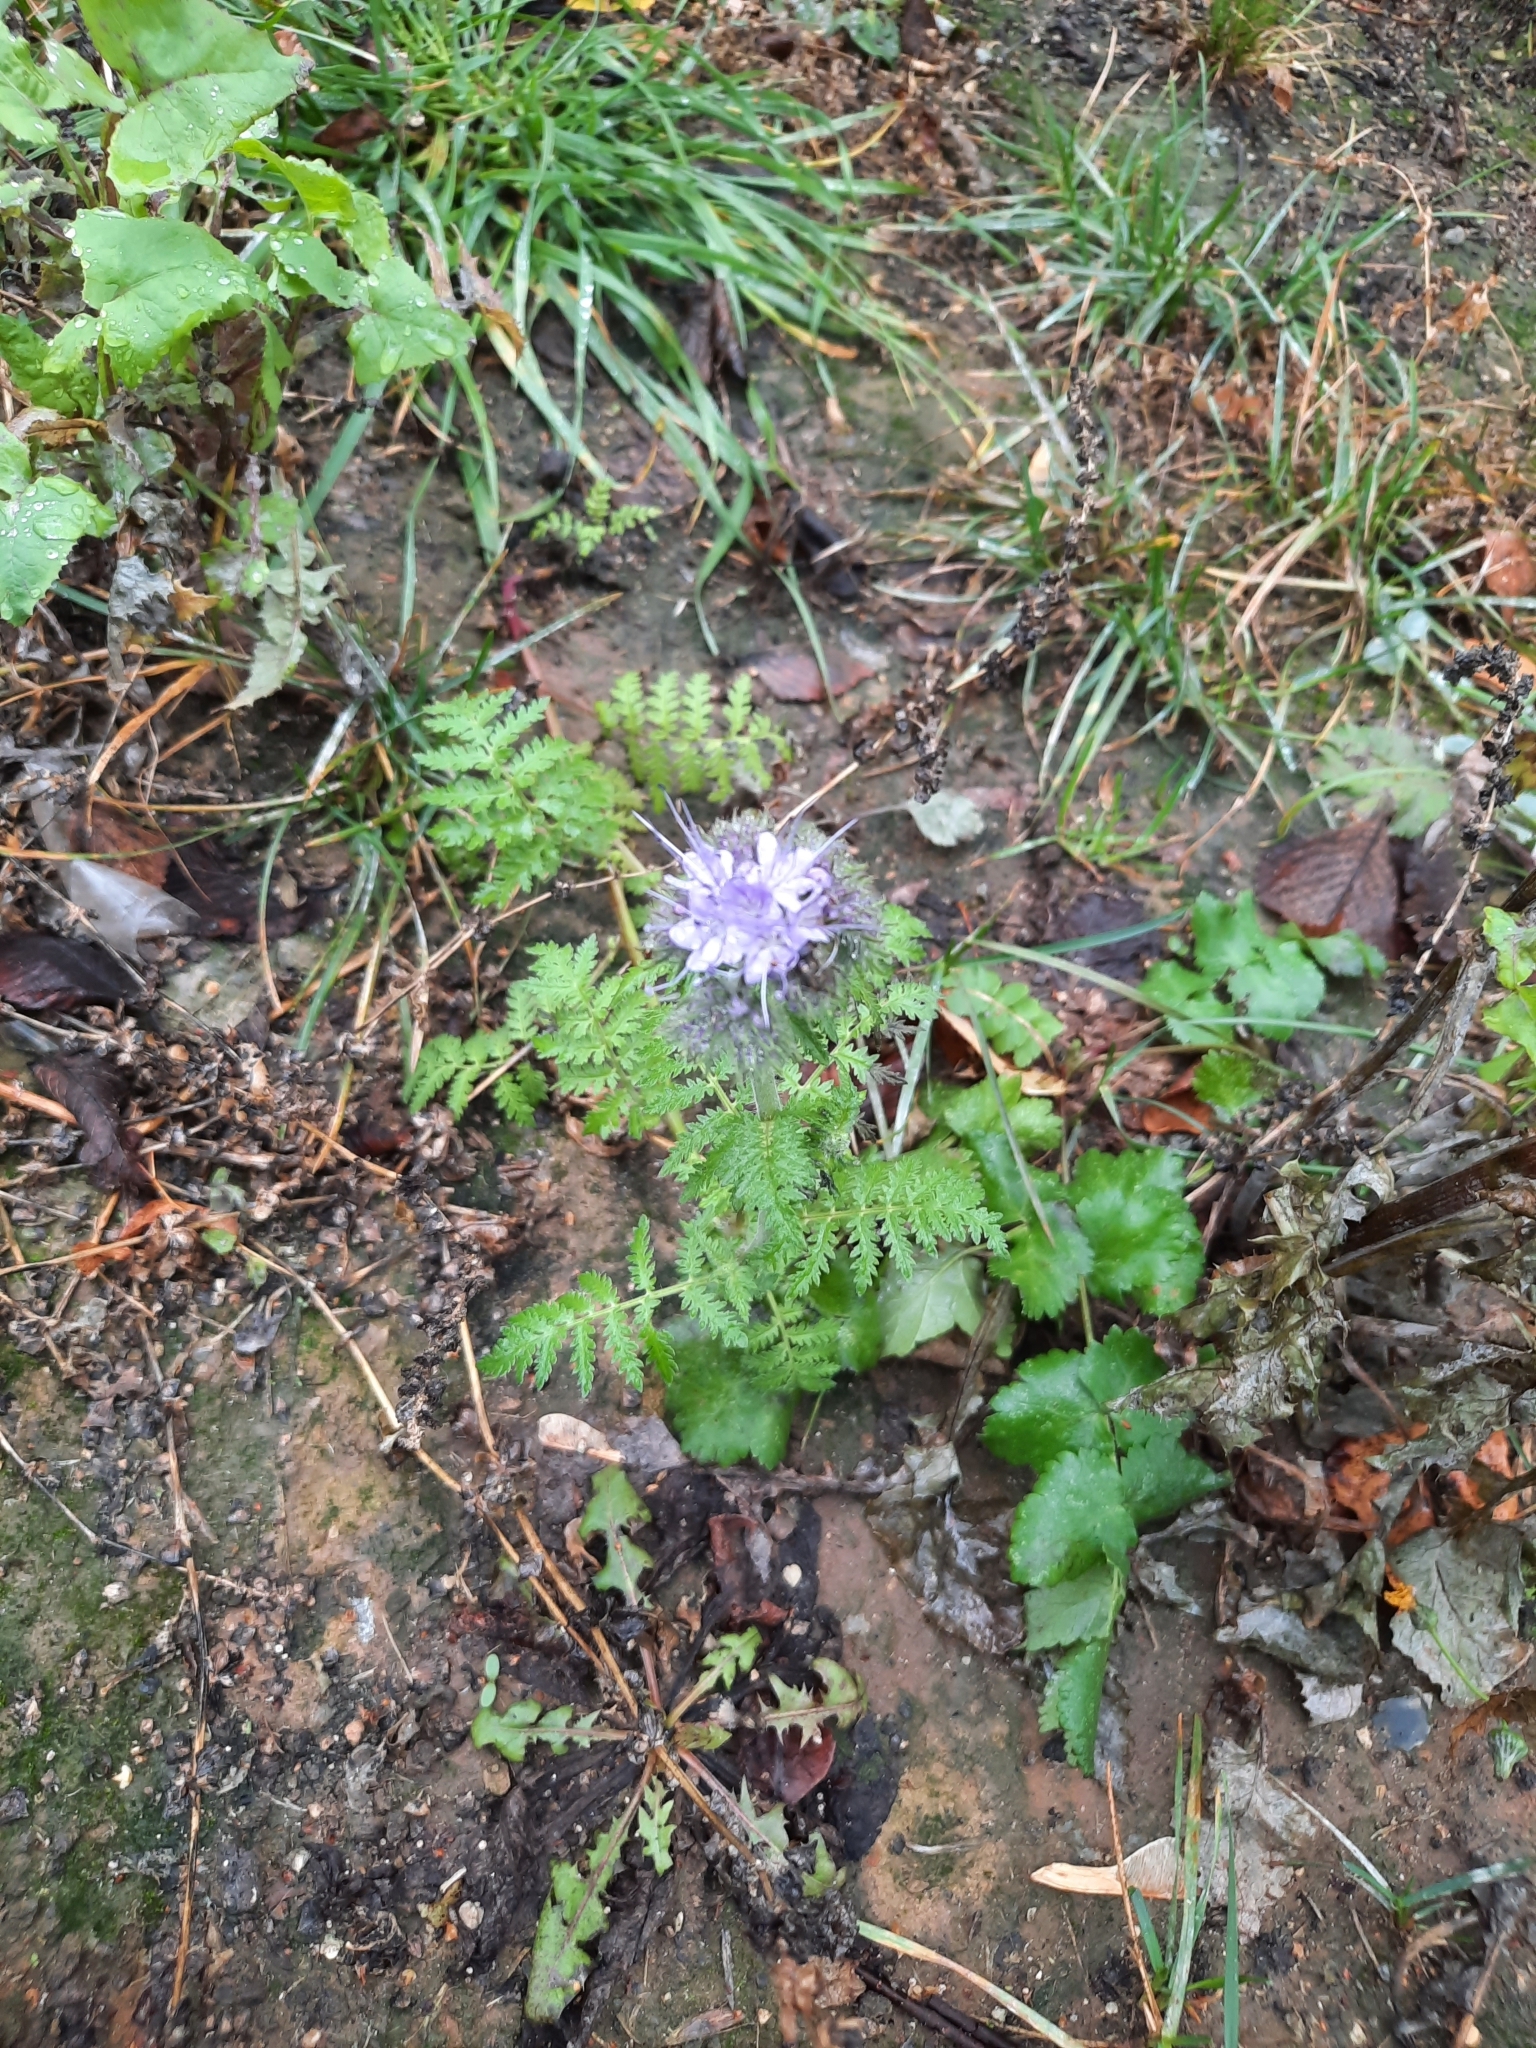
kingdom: Plantae
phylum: Tracheophyta
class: Magnoliopsida
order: Boraginales
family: Hydrophyllaceae
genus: Phacelia
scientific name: Phacelia tanacetifolia
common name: Phacelia
